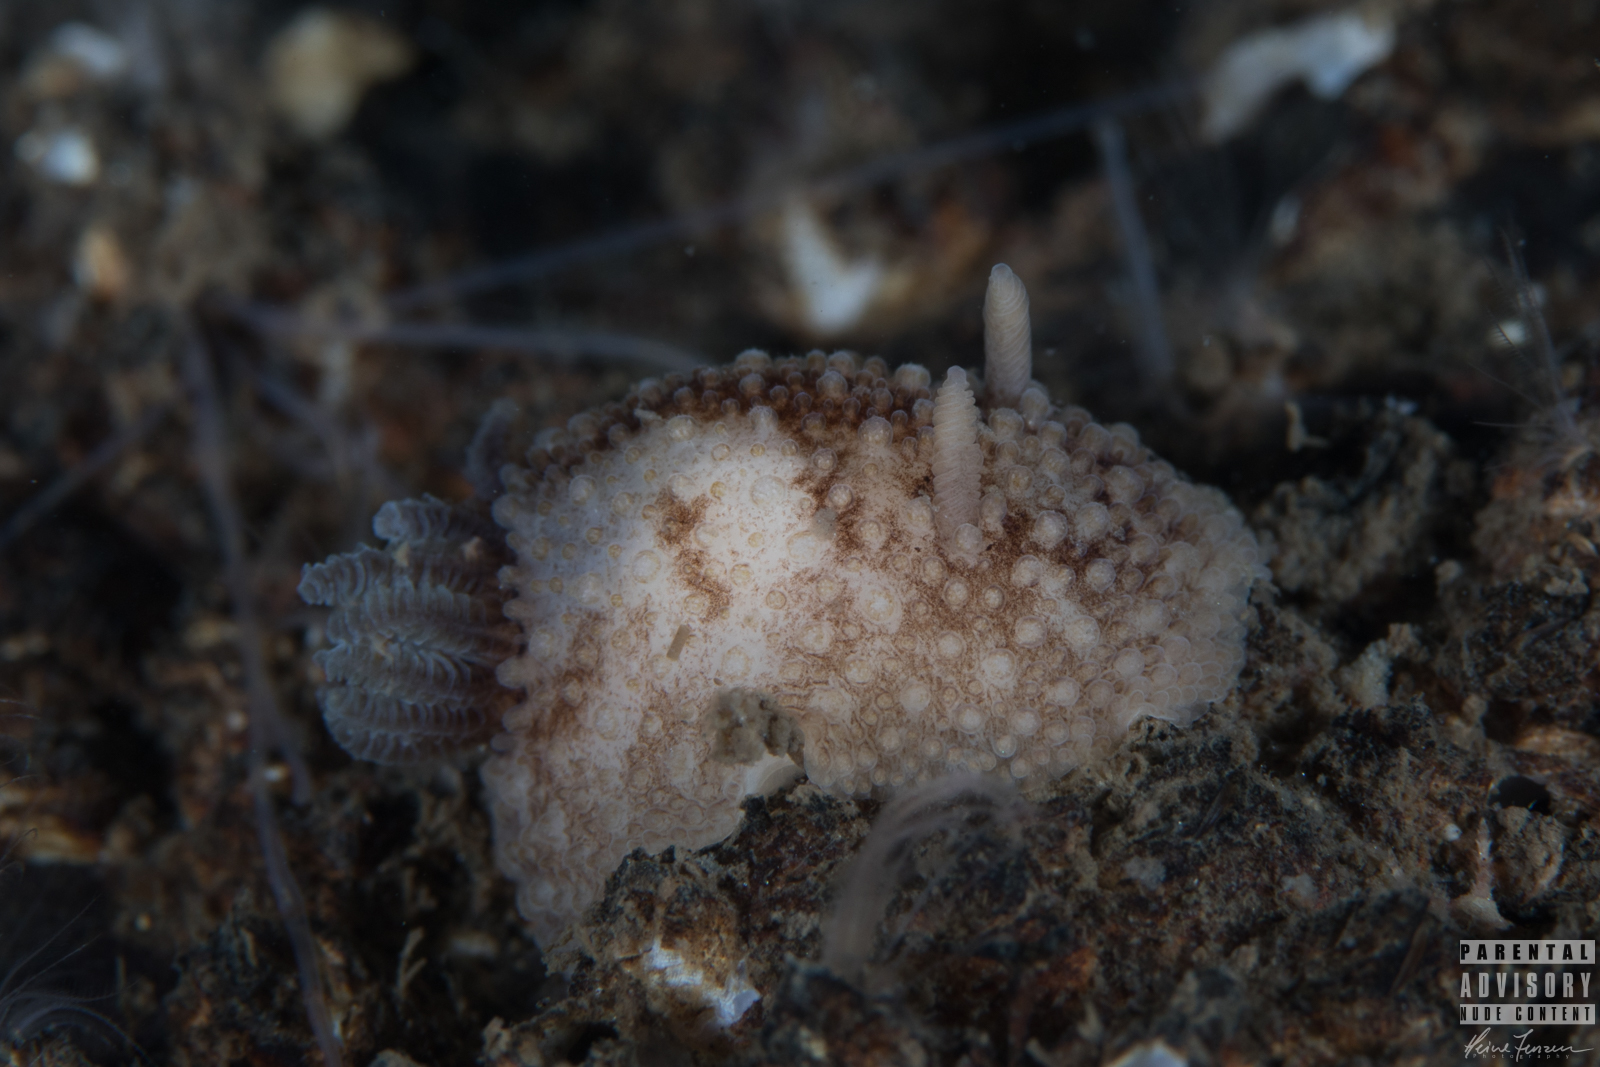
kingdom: Animalia
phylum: Mollusca
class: Gastropoda
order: Nudibranchia
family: Onchidorididae
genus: Onchidoris
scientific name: Onchidoris bilamellata
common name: Barnacle-eating onchidoris
